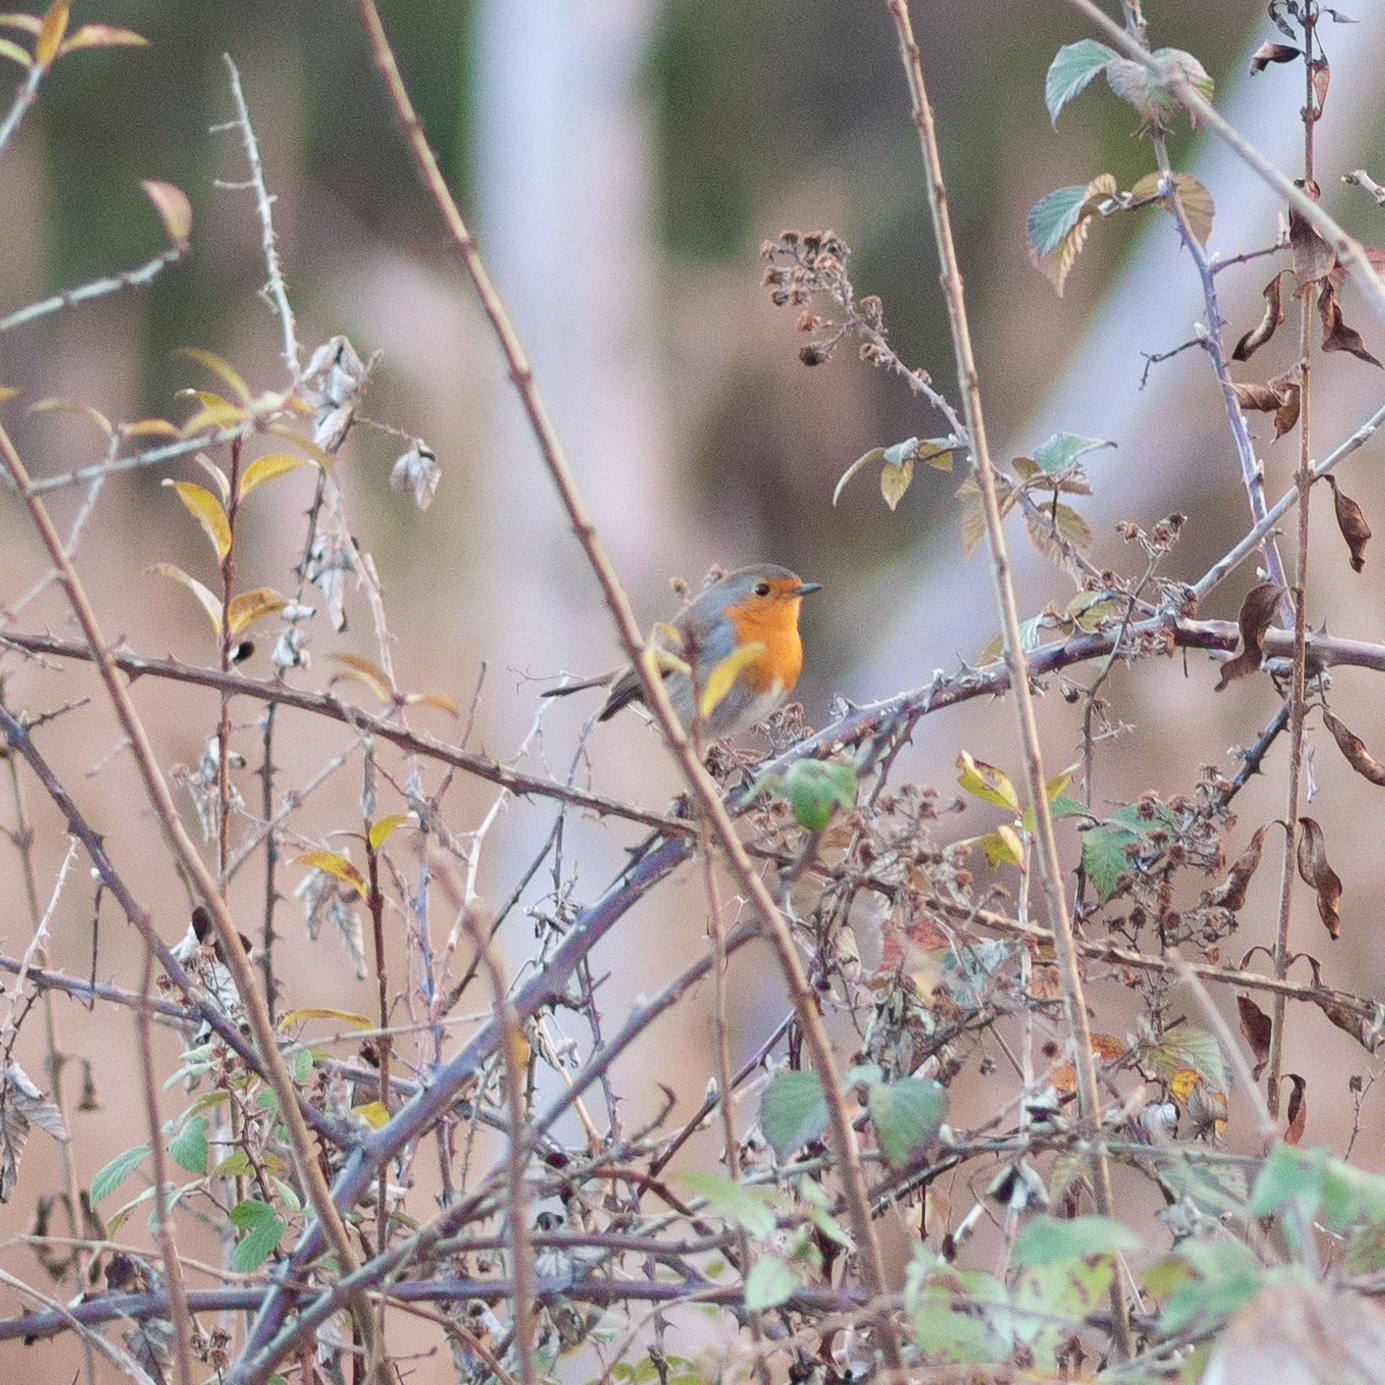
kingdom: Animalia
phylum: Chordata
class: Aves
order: Passeriformes
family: Muscicapidae
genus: Erithacus
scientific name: Erithacus rubecula
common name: European robin
